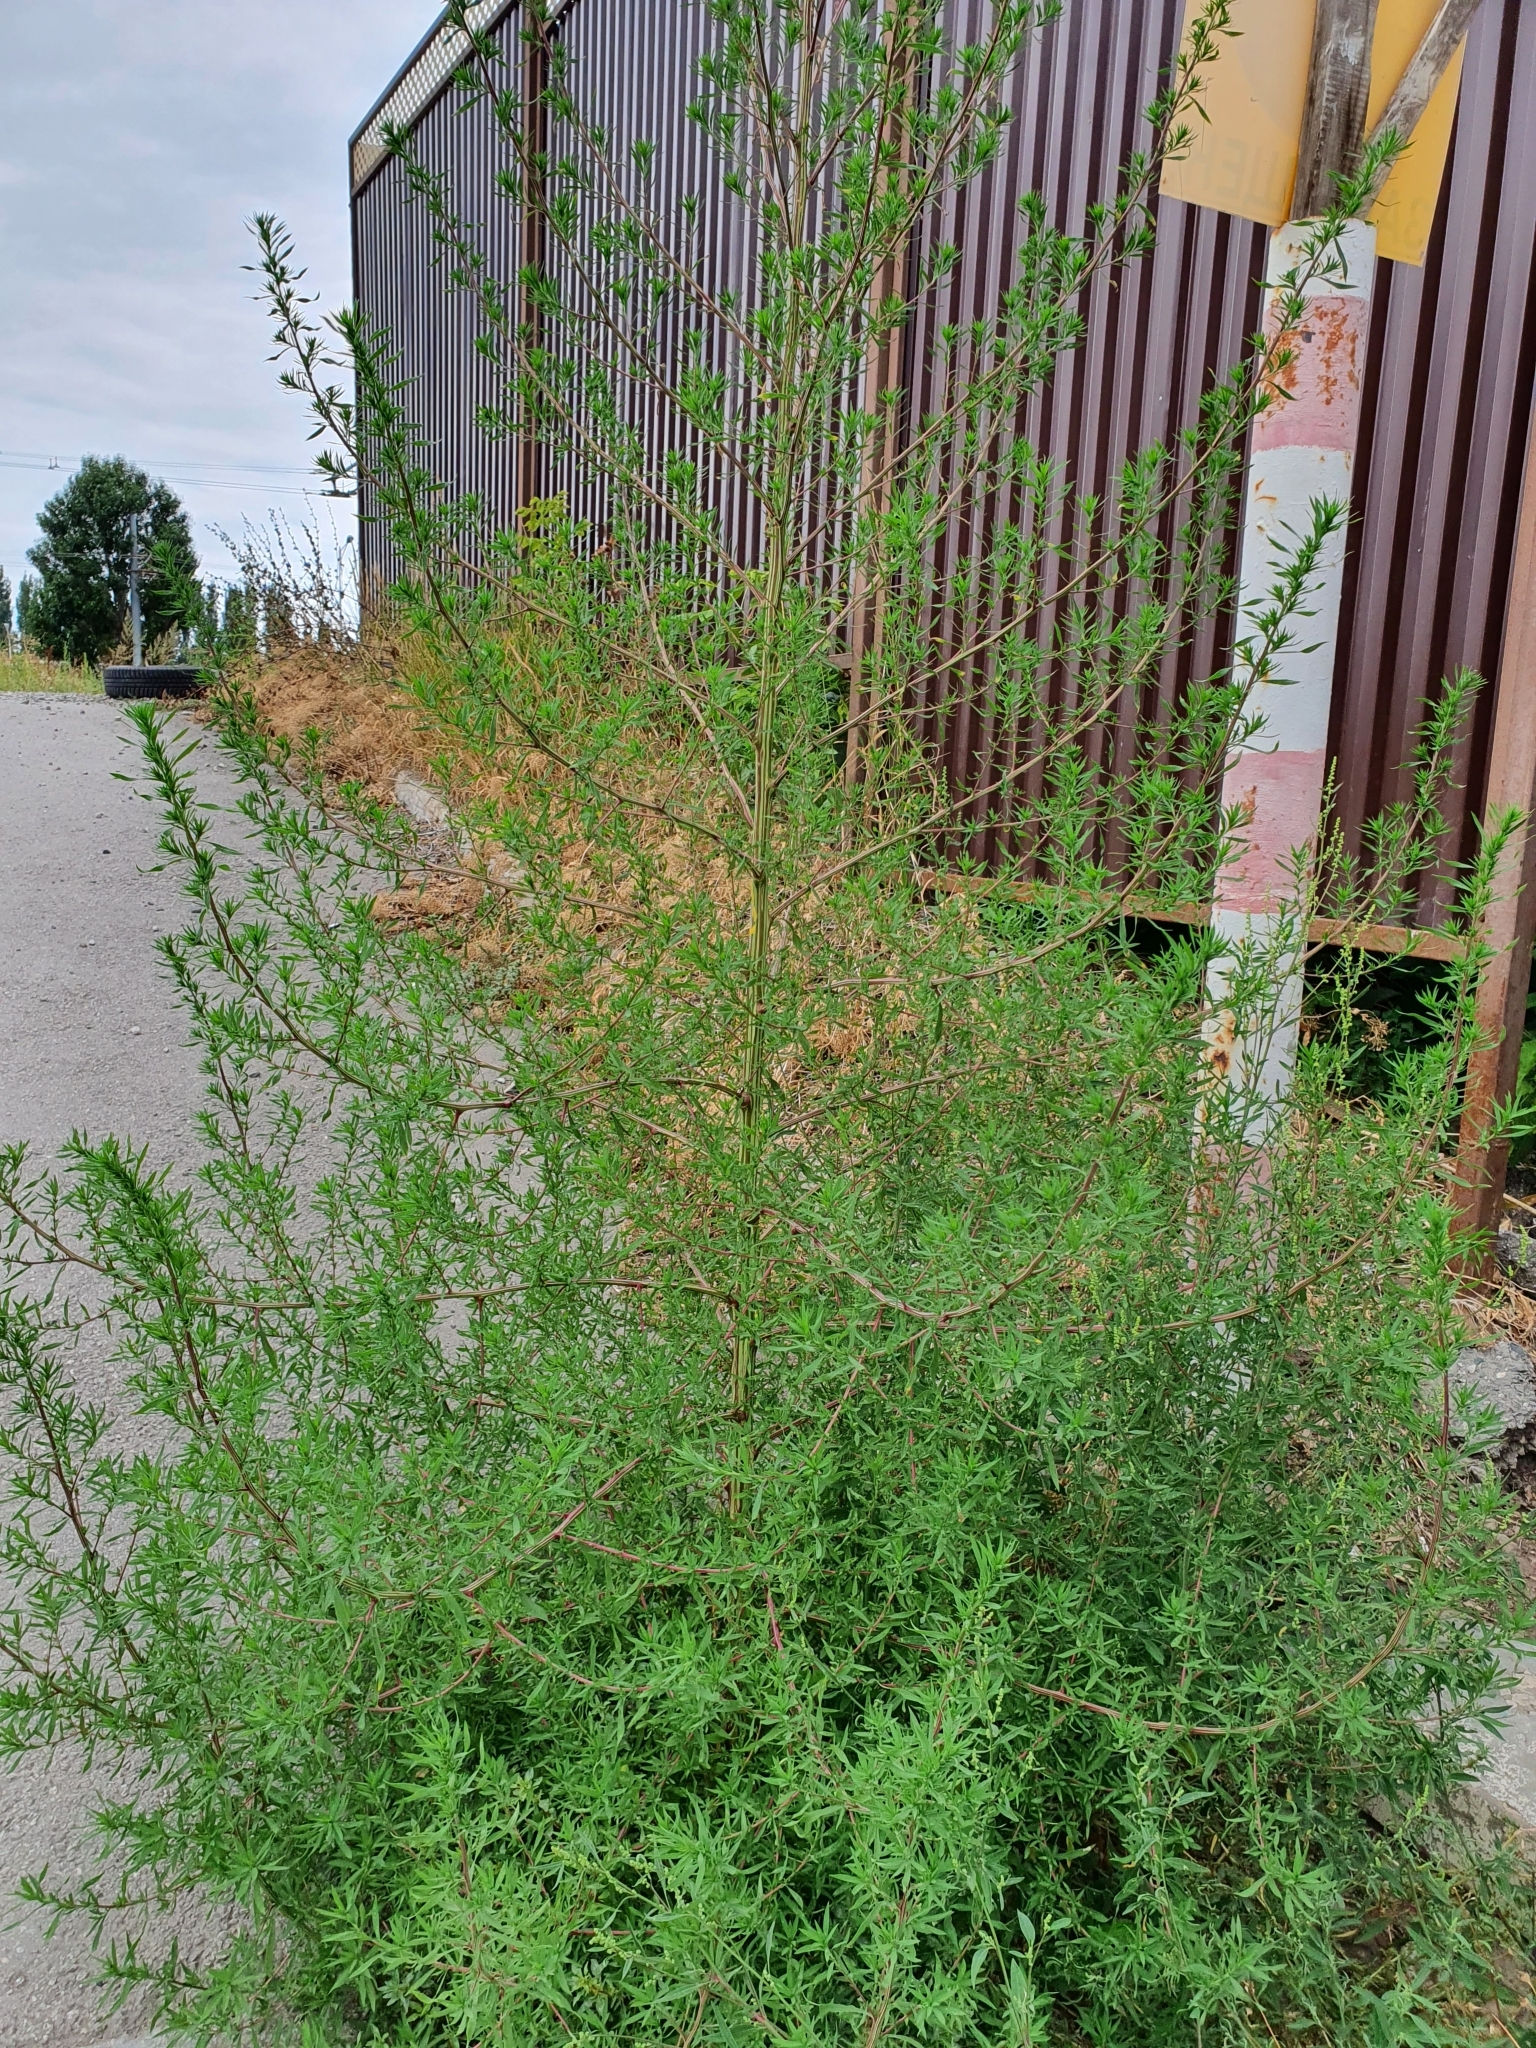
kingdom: Plantae
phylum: Tracheophyta
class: Magnoliopsida
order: Caryophyllales
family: Amaranthaceae
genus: Bassia
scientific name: Bassia scoparia
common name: Belvedere
